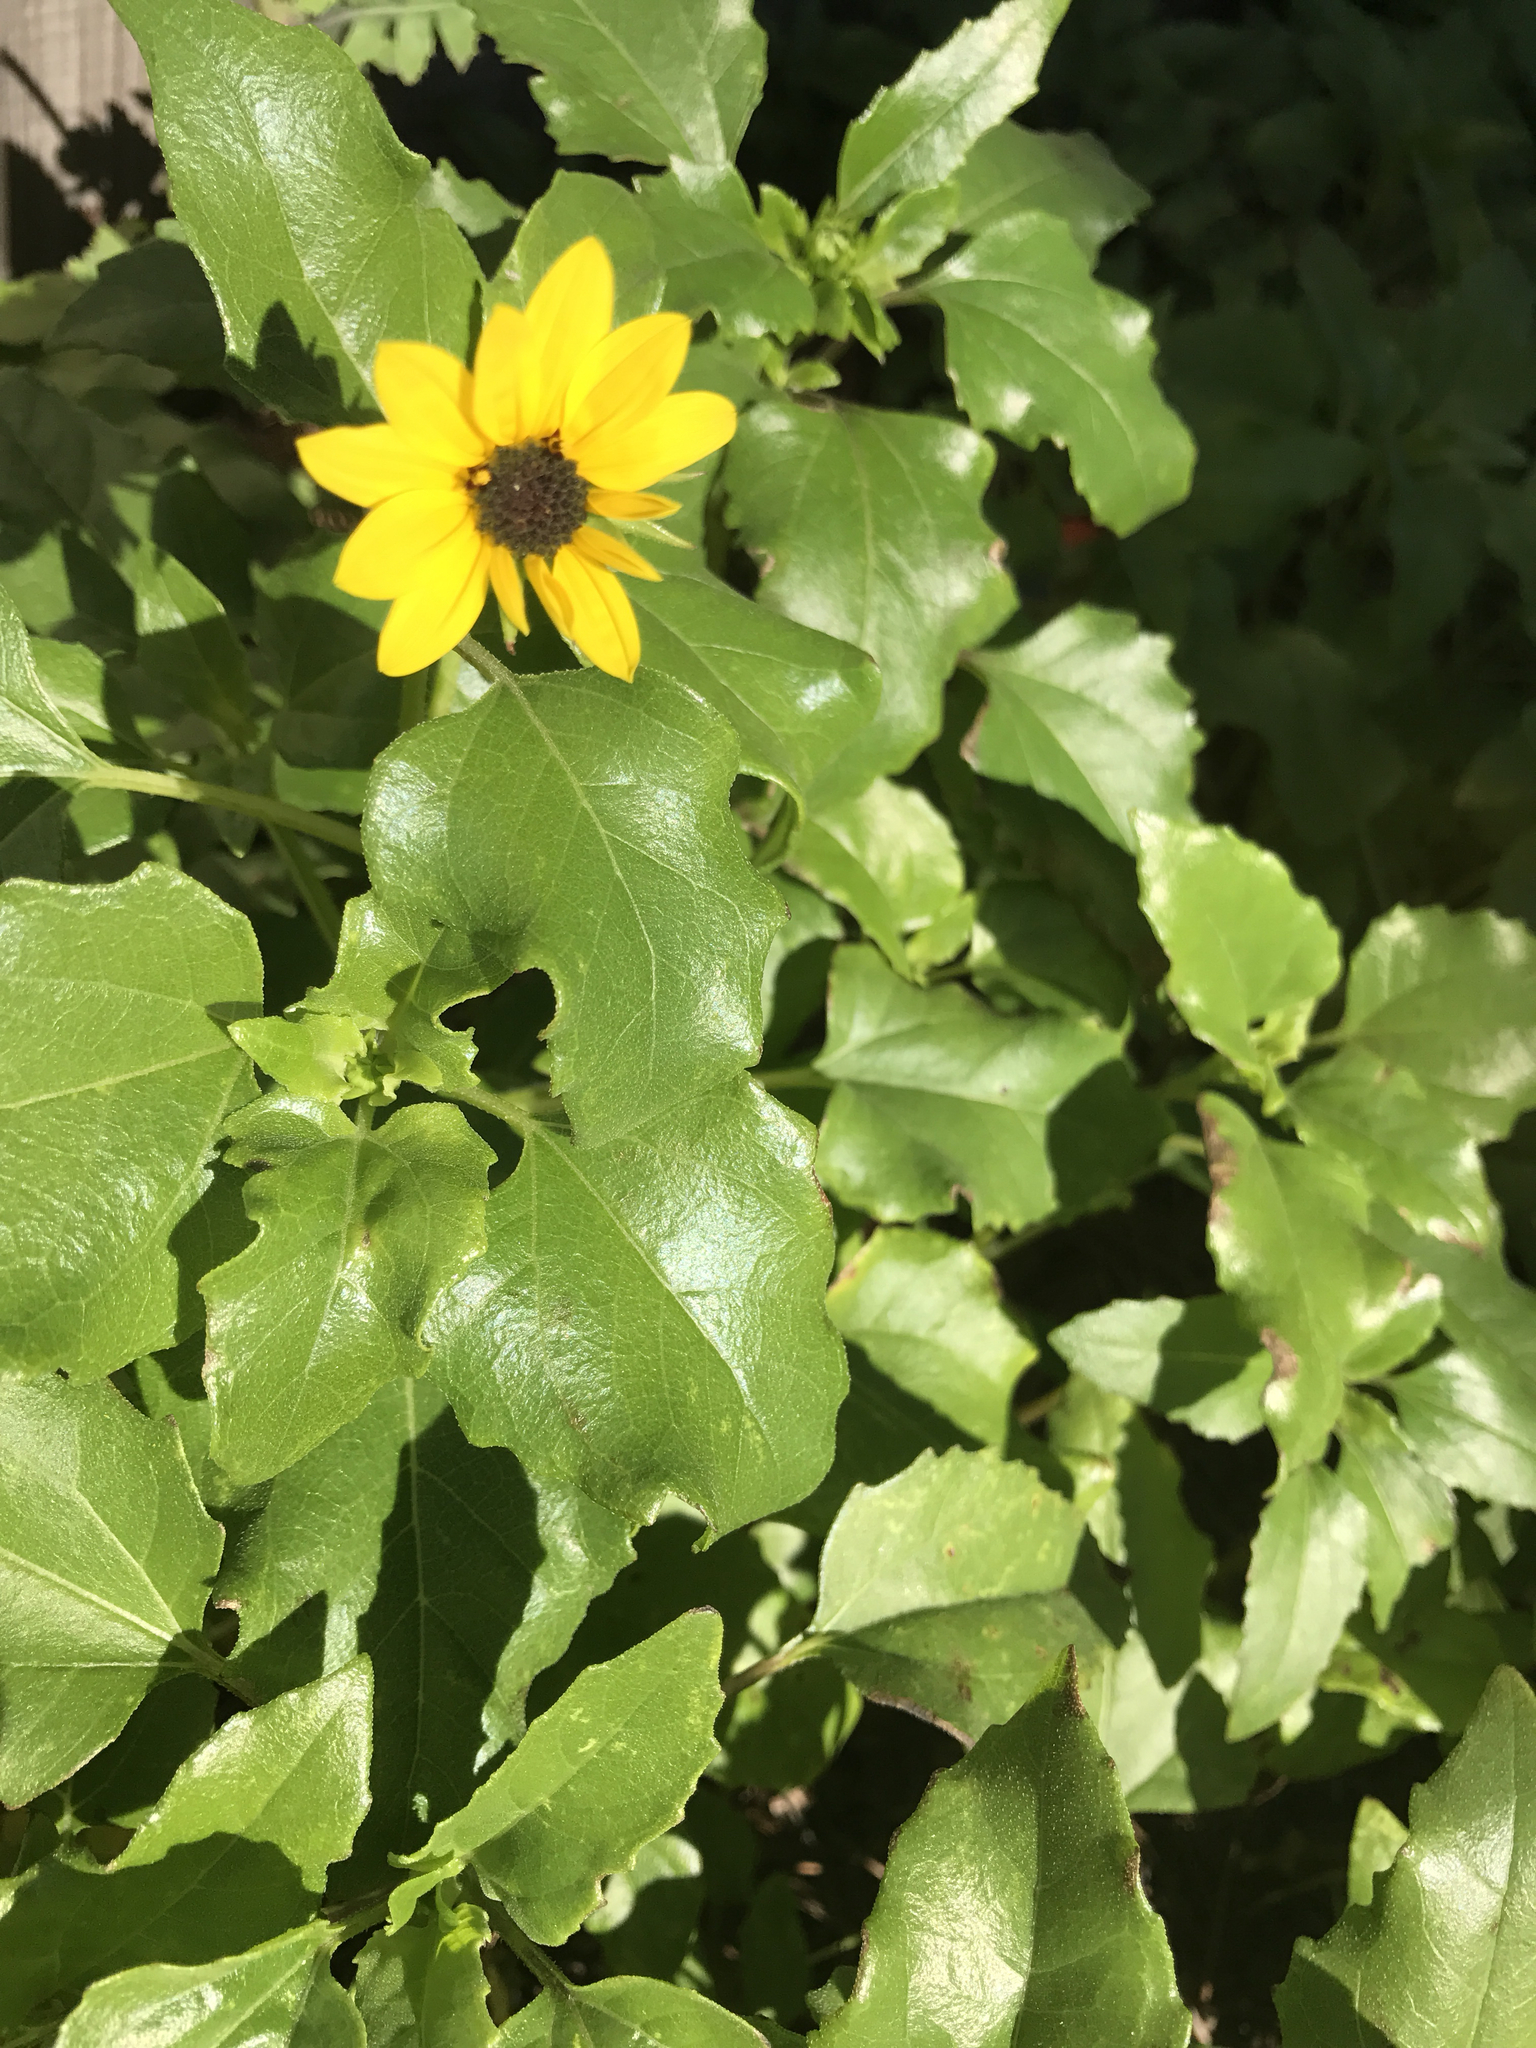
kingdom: Plantae
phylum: Tracheophyta
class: Magnoliopsida
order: Asterales
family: Asteraceae
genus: Helianthus
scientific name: Helianthus debilis
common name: Weak sunflower
